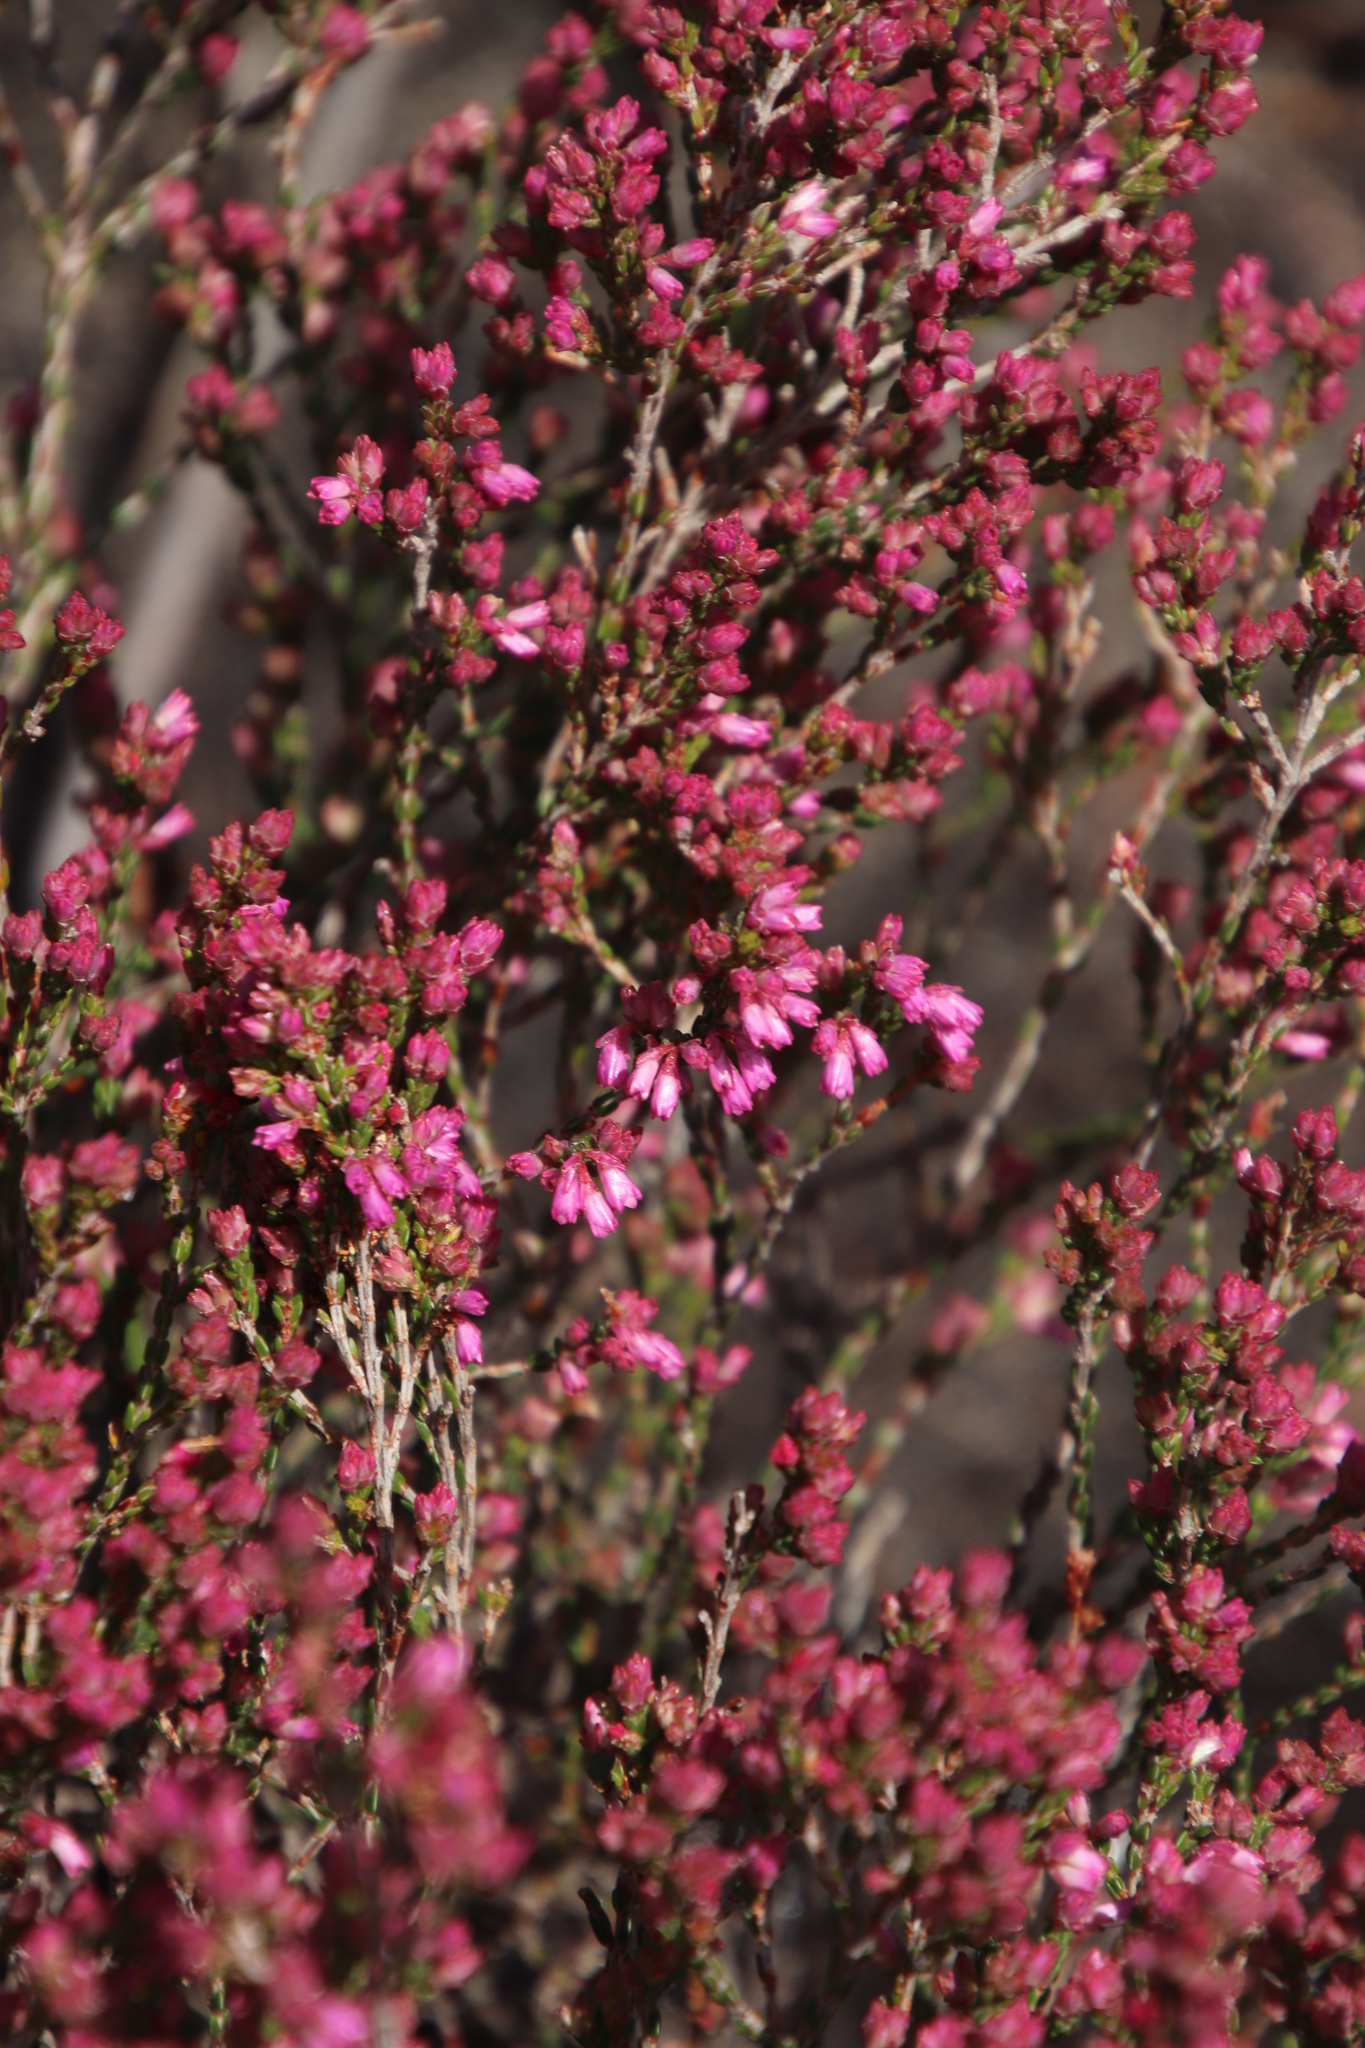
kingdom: Plantae
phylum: Tracheophyta
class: Magnoliopsida
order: Ericales
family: Ericaceae
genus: Erica
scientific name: Erica gnaphaloides
